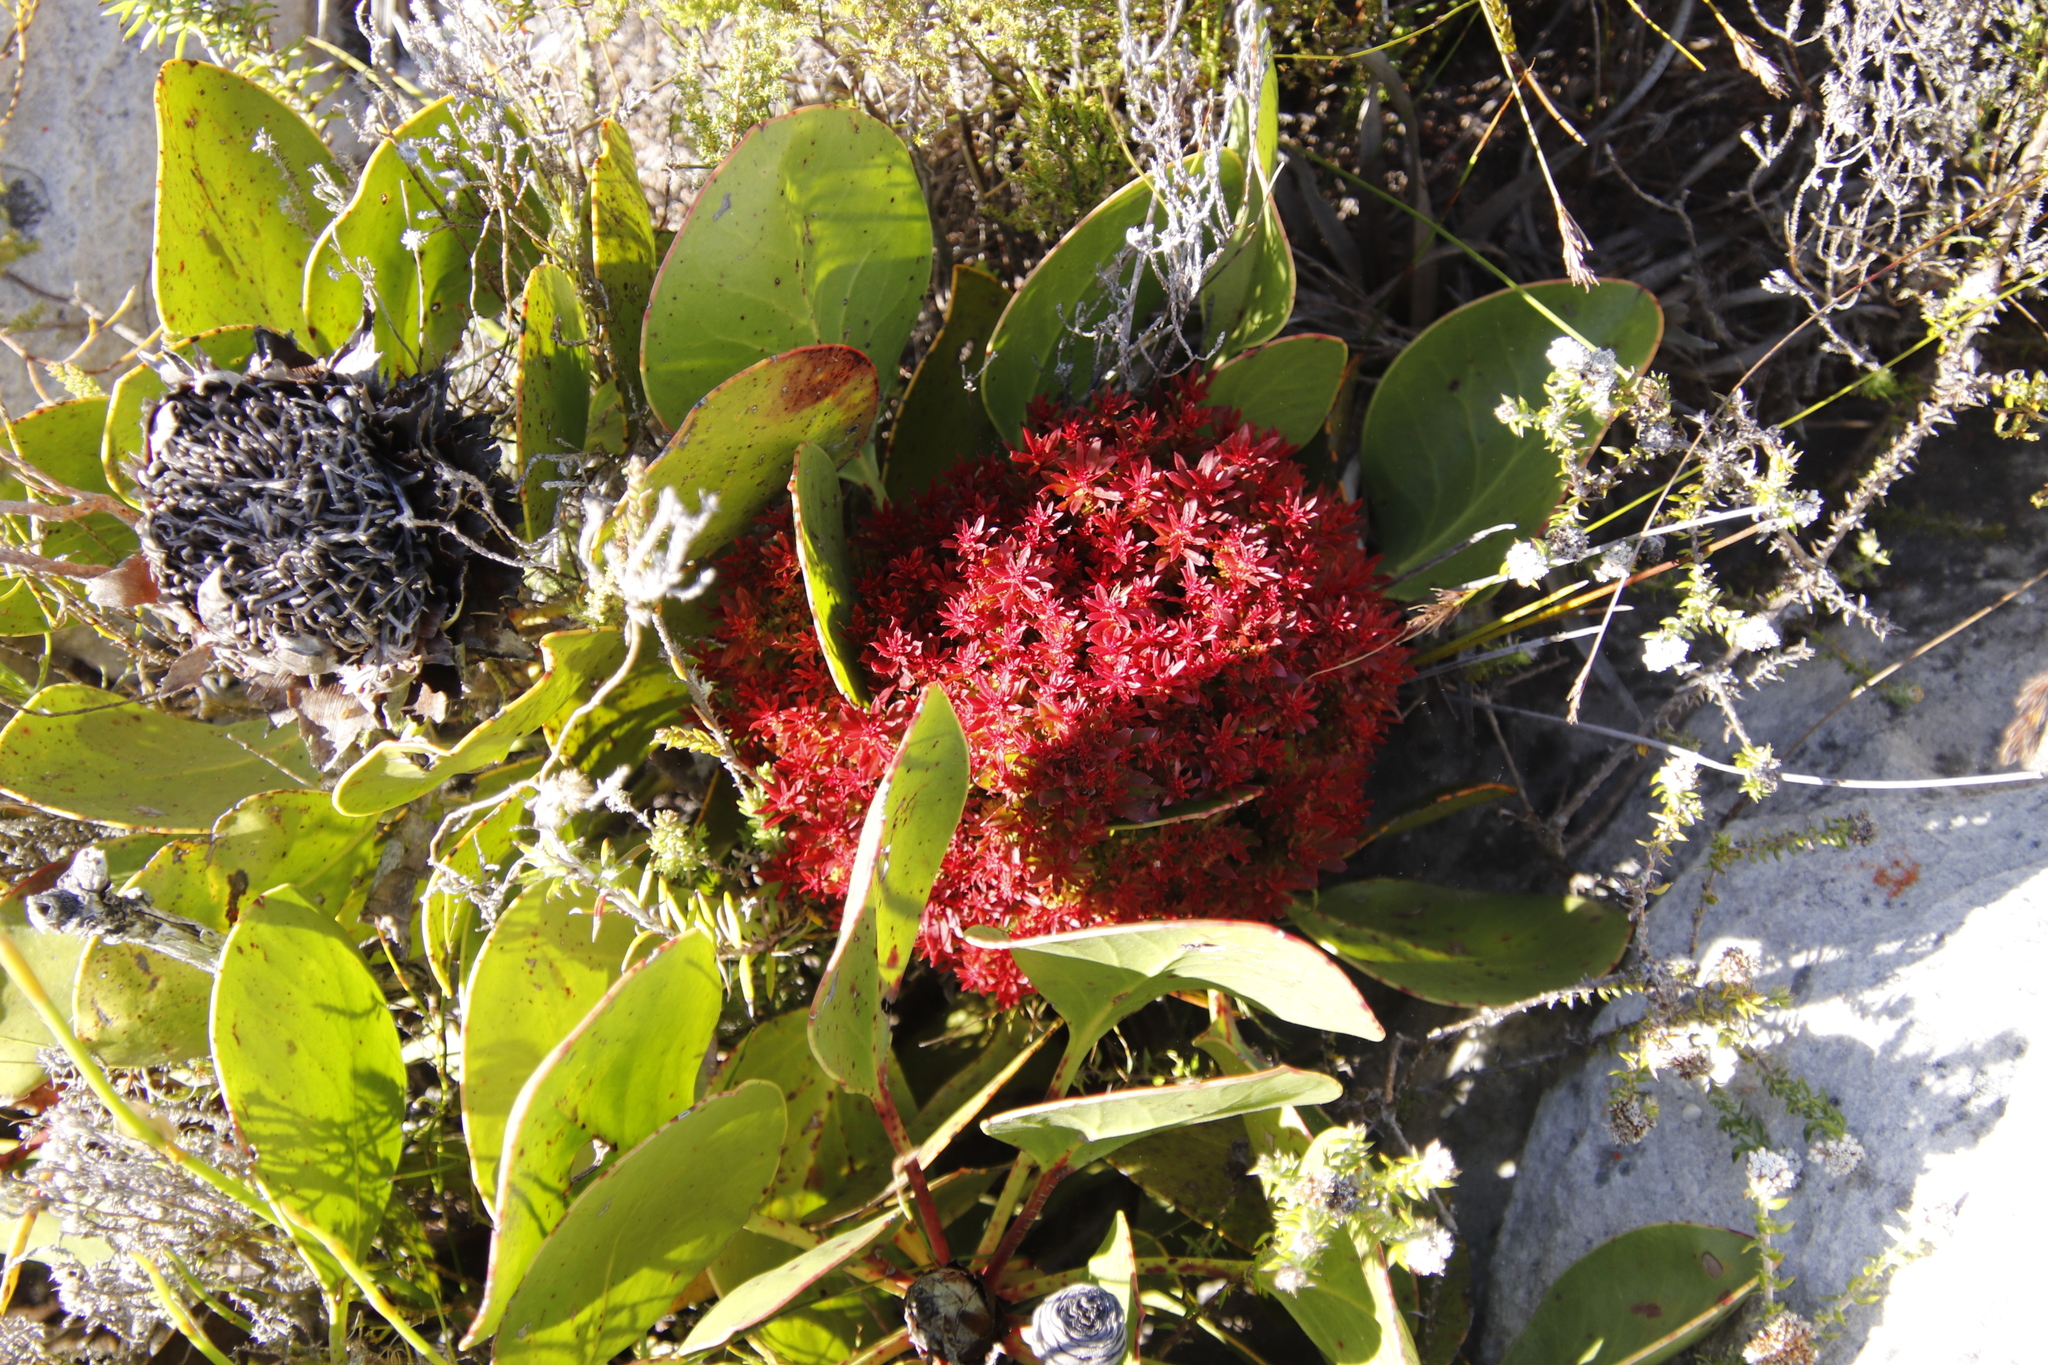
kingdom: Bacteria
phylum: Firmicutes
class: Bacilli
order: Acholeplasmatales
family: Acholeplasmataceae
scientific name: Acholeplasmataceae
